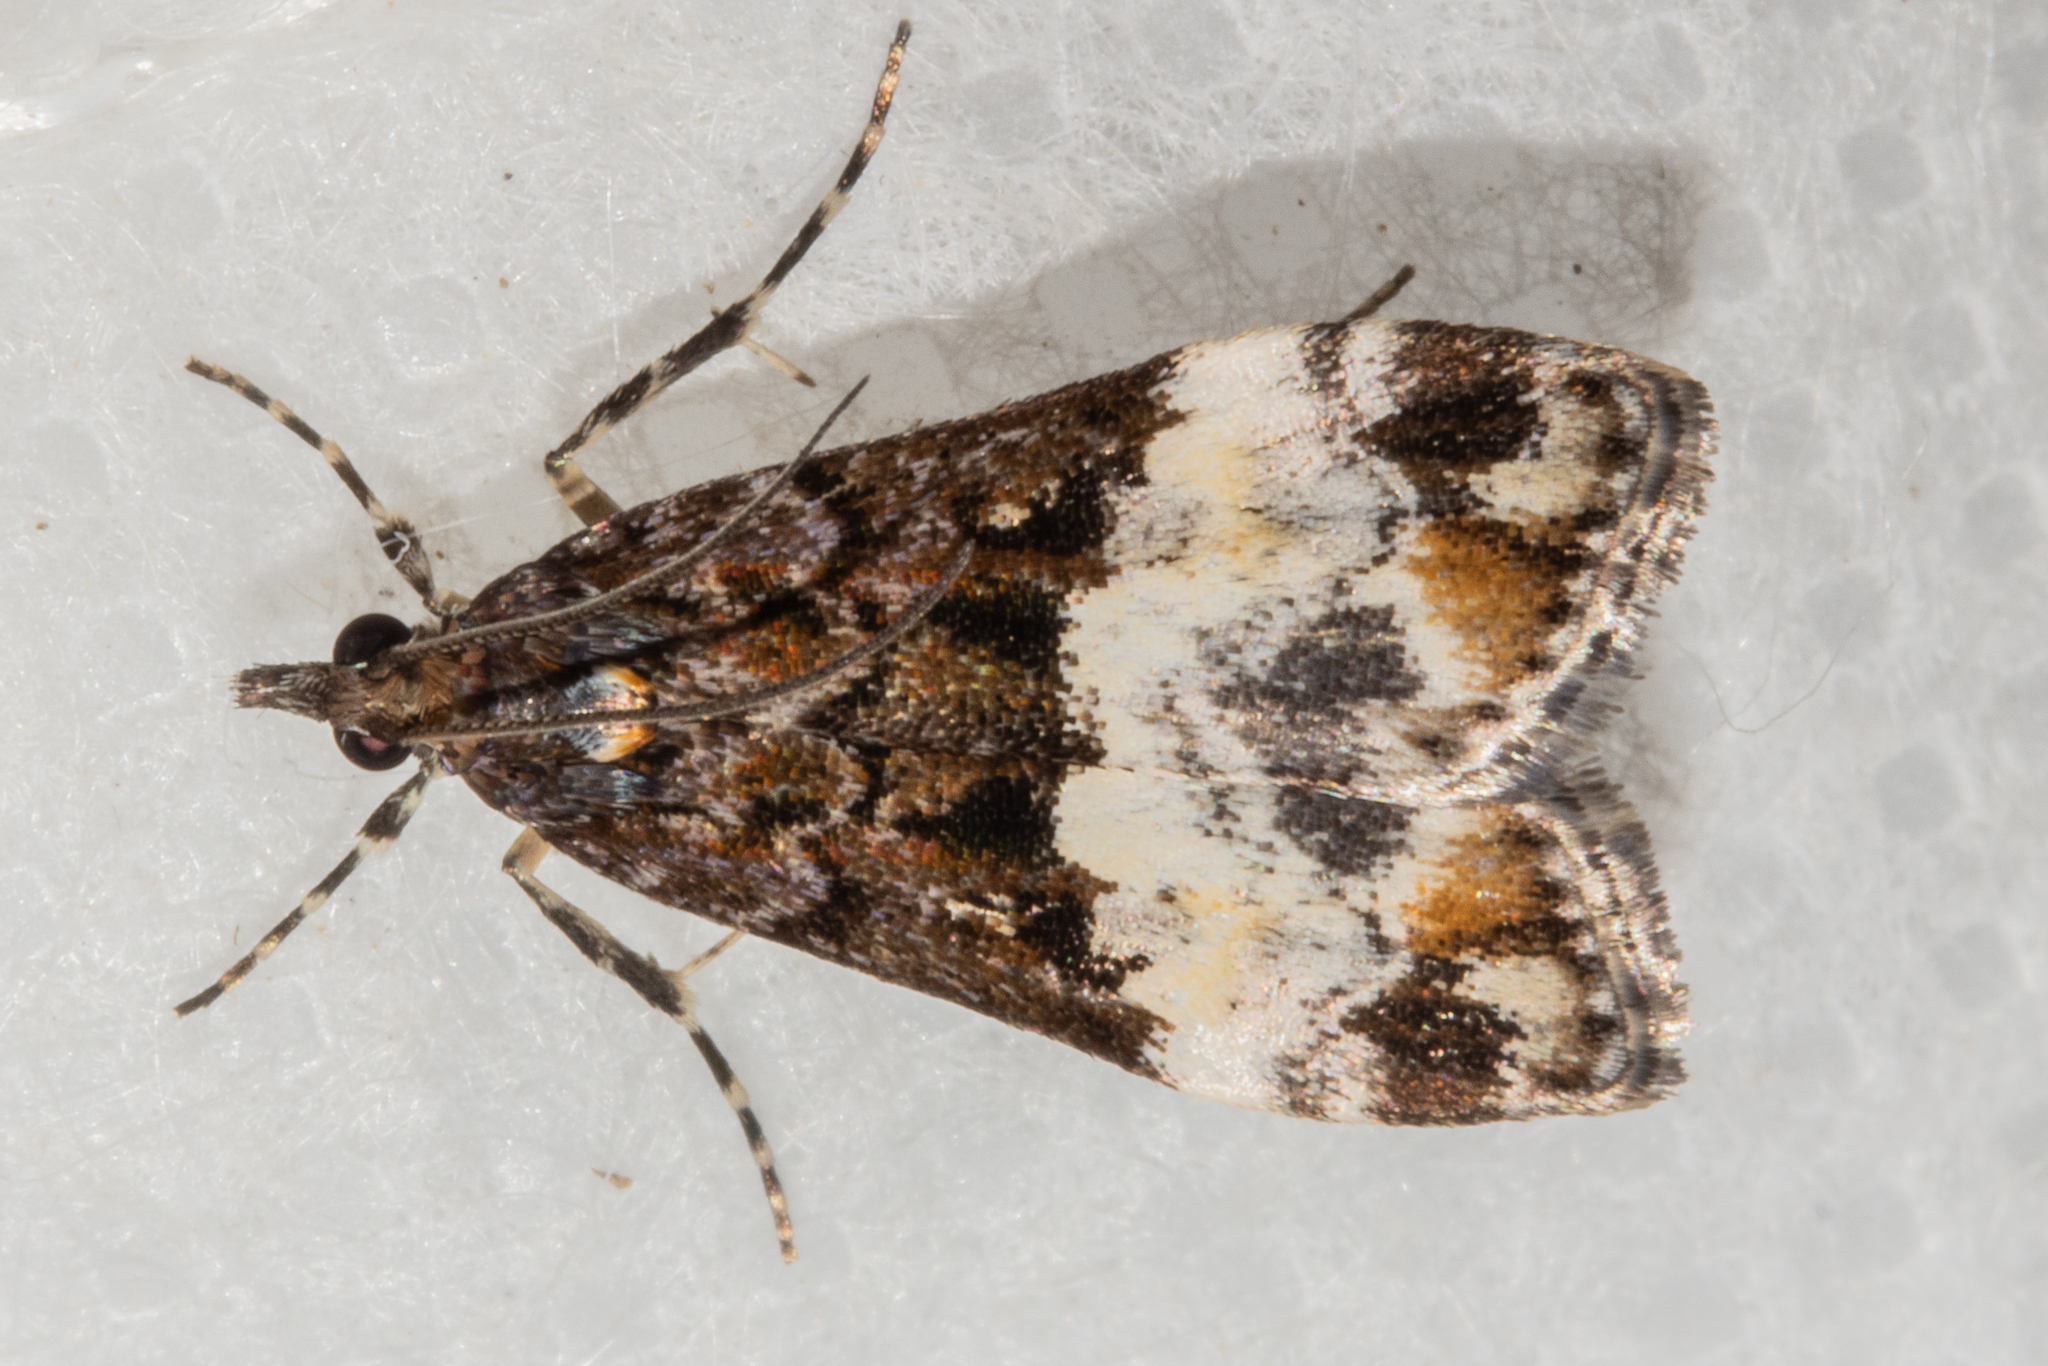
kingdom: Animalia
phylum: Arthropoda
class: Insecta
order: Lepidoptera
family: Crambidae
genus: Scoparia
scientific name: Scoparia minusculalis
